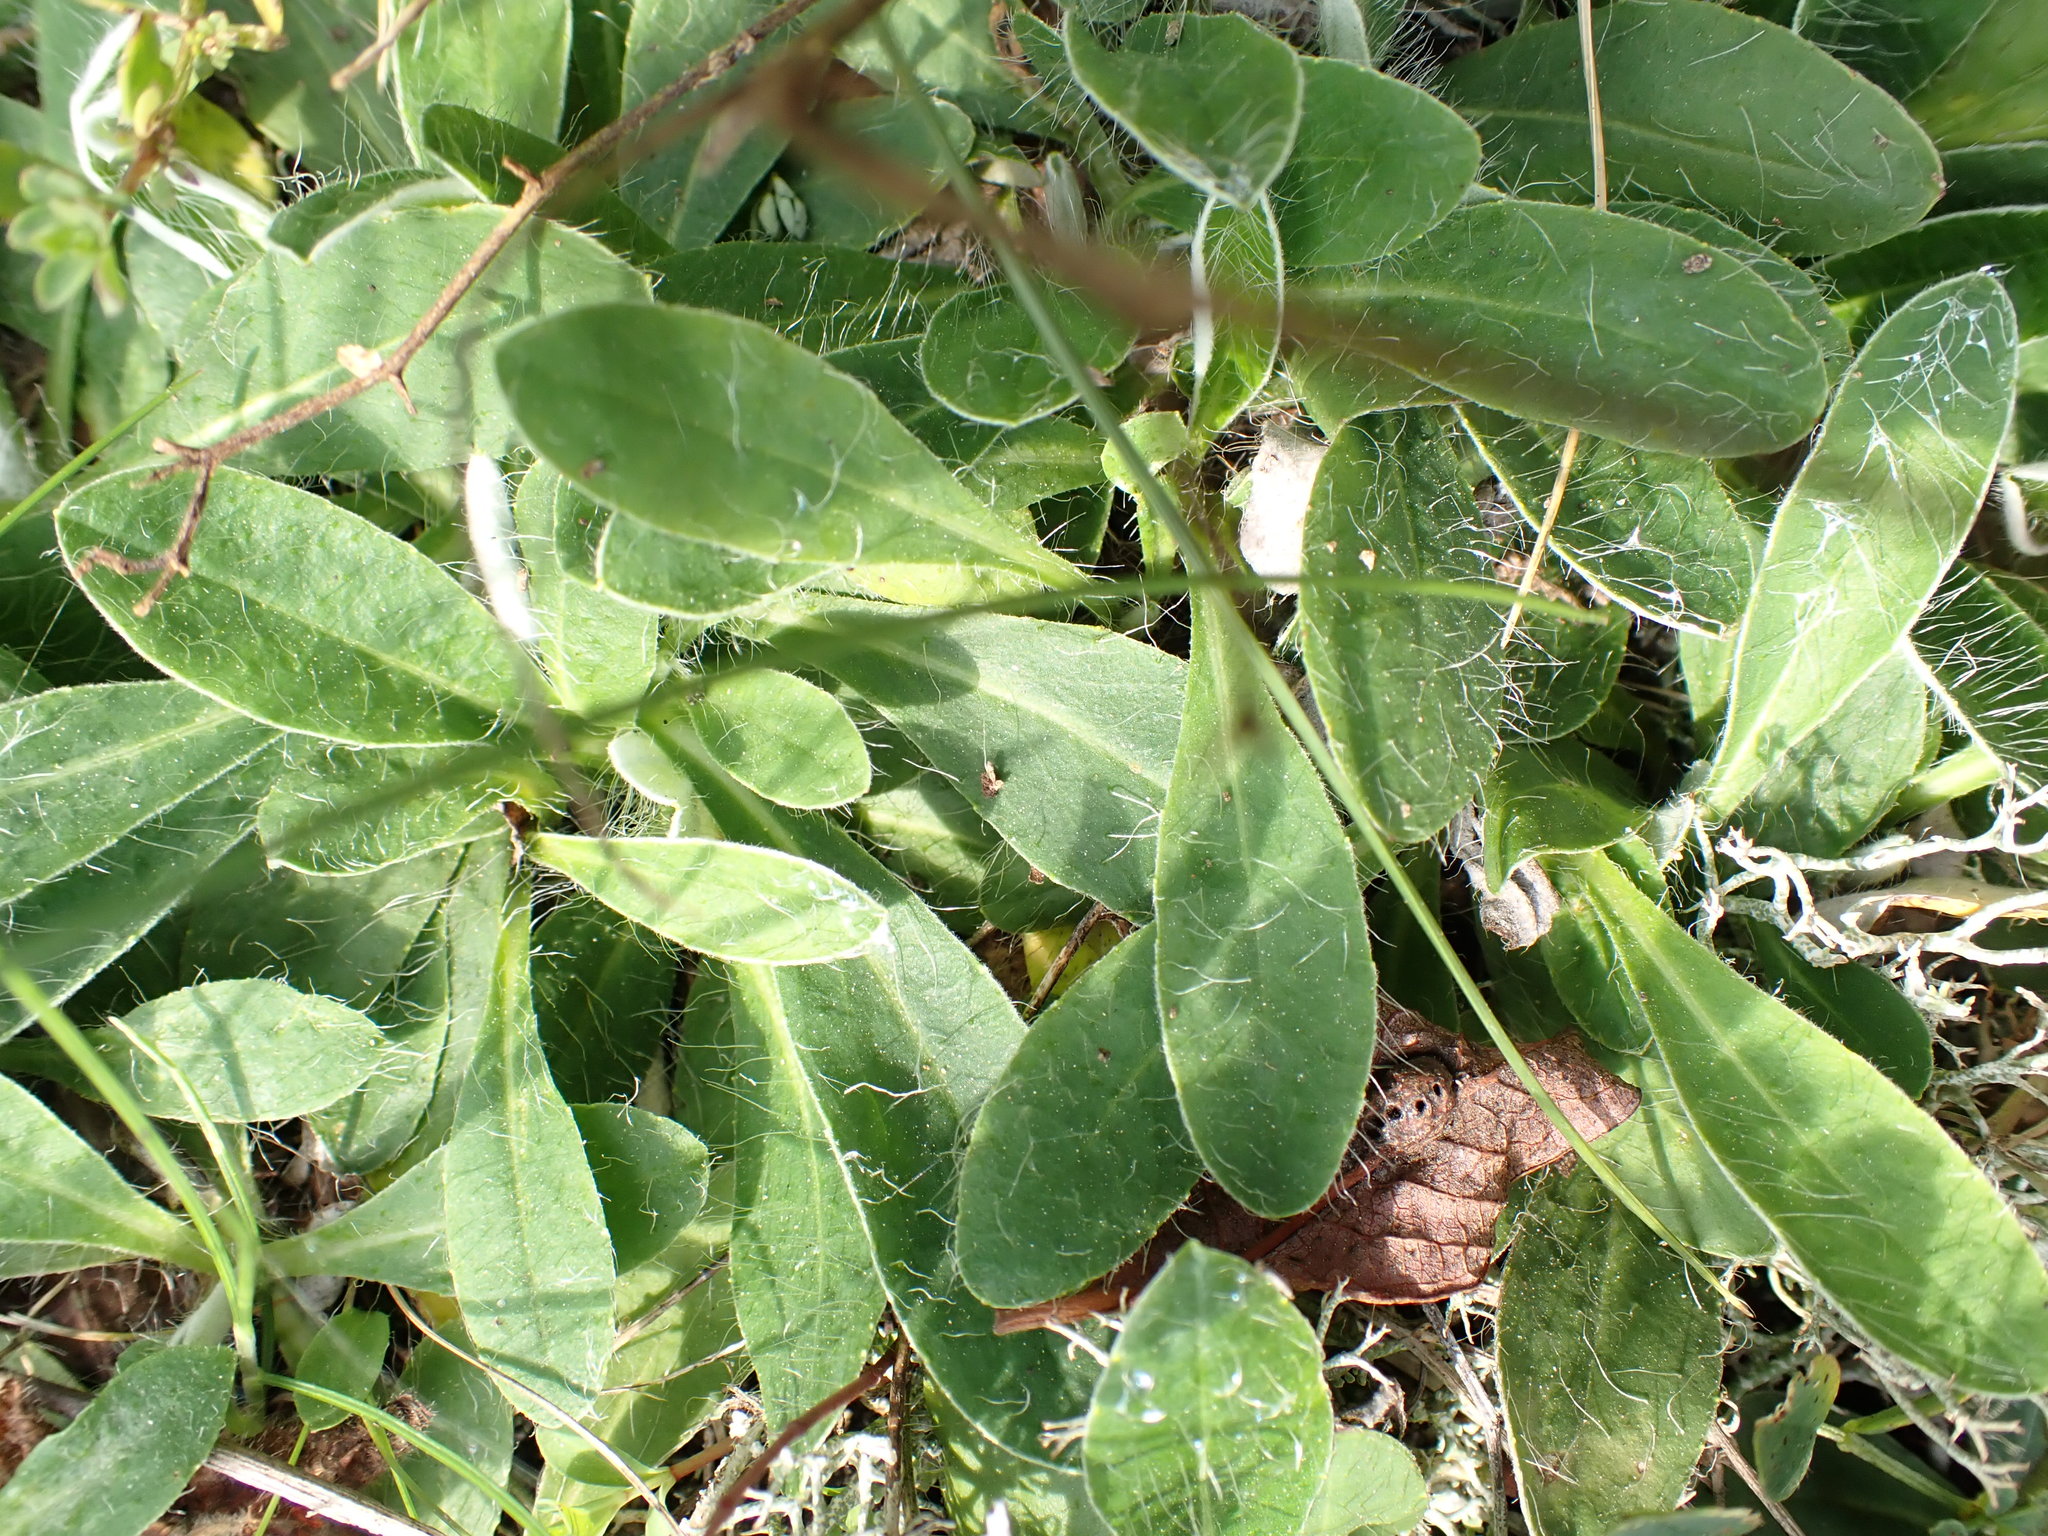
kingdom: Plantae
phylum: Tracheophyta
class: Magnoliopsida
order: Asterales
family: Asteraceae
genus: Pilosella
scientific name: Pilosella officinarum
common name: Mouse-ear hawkweed
